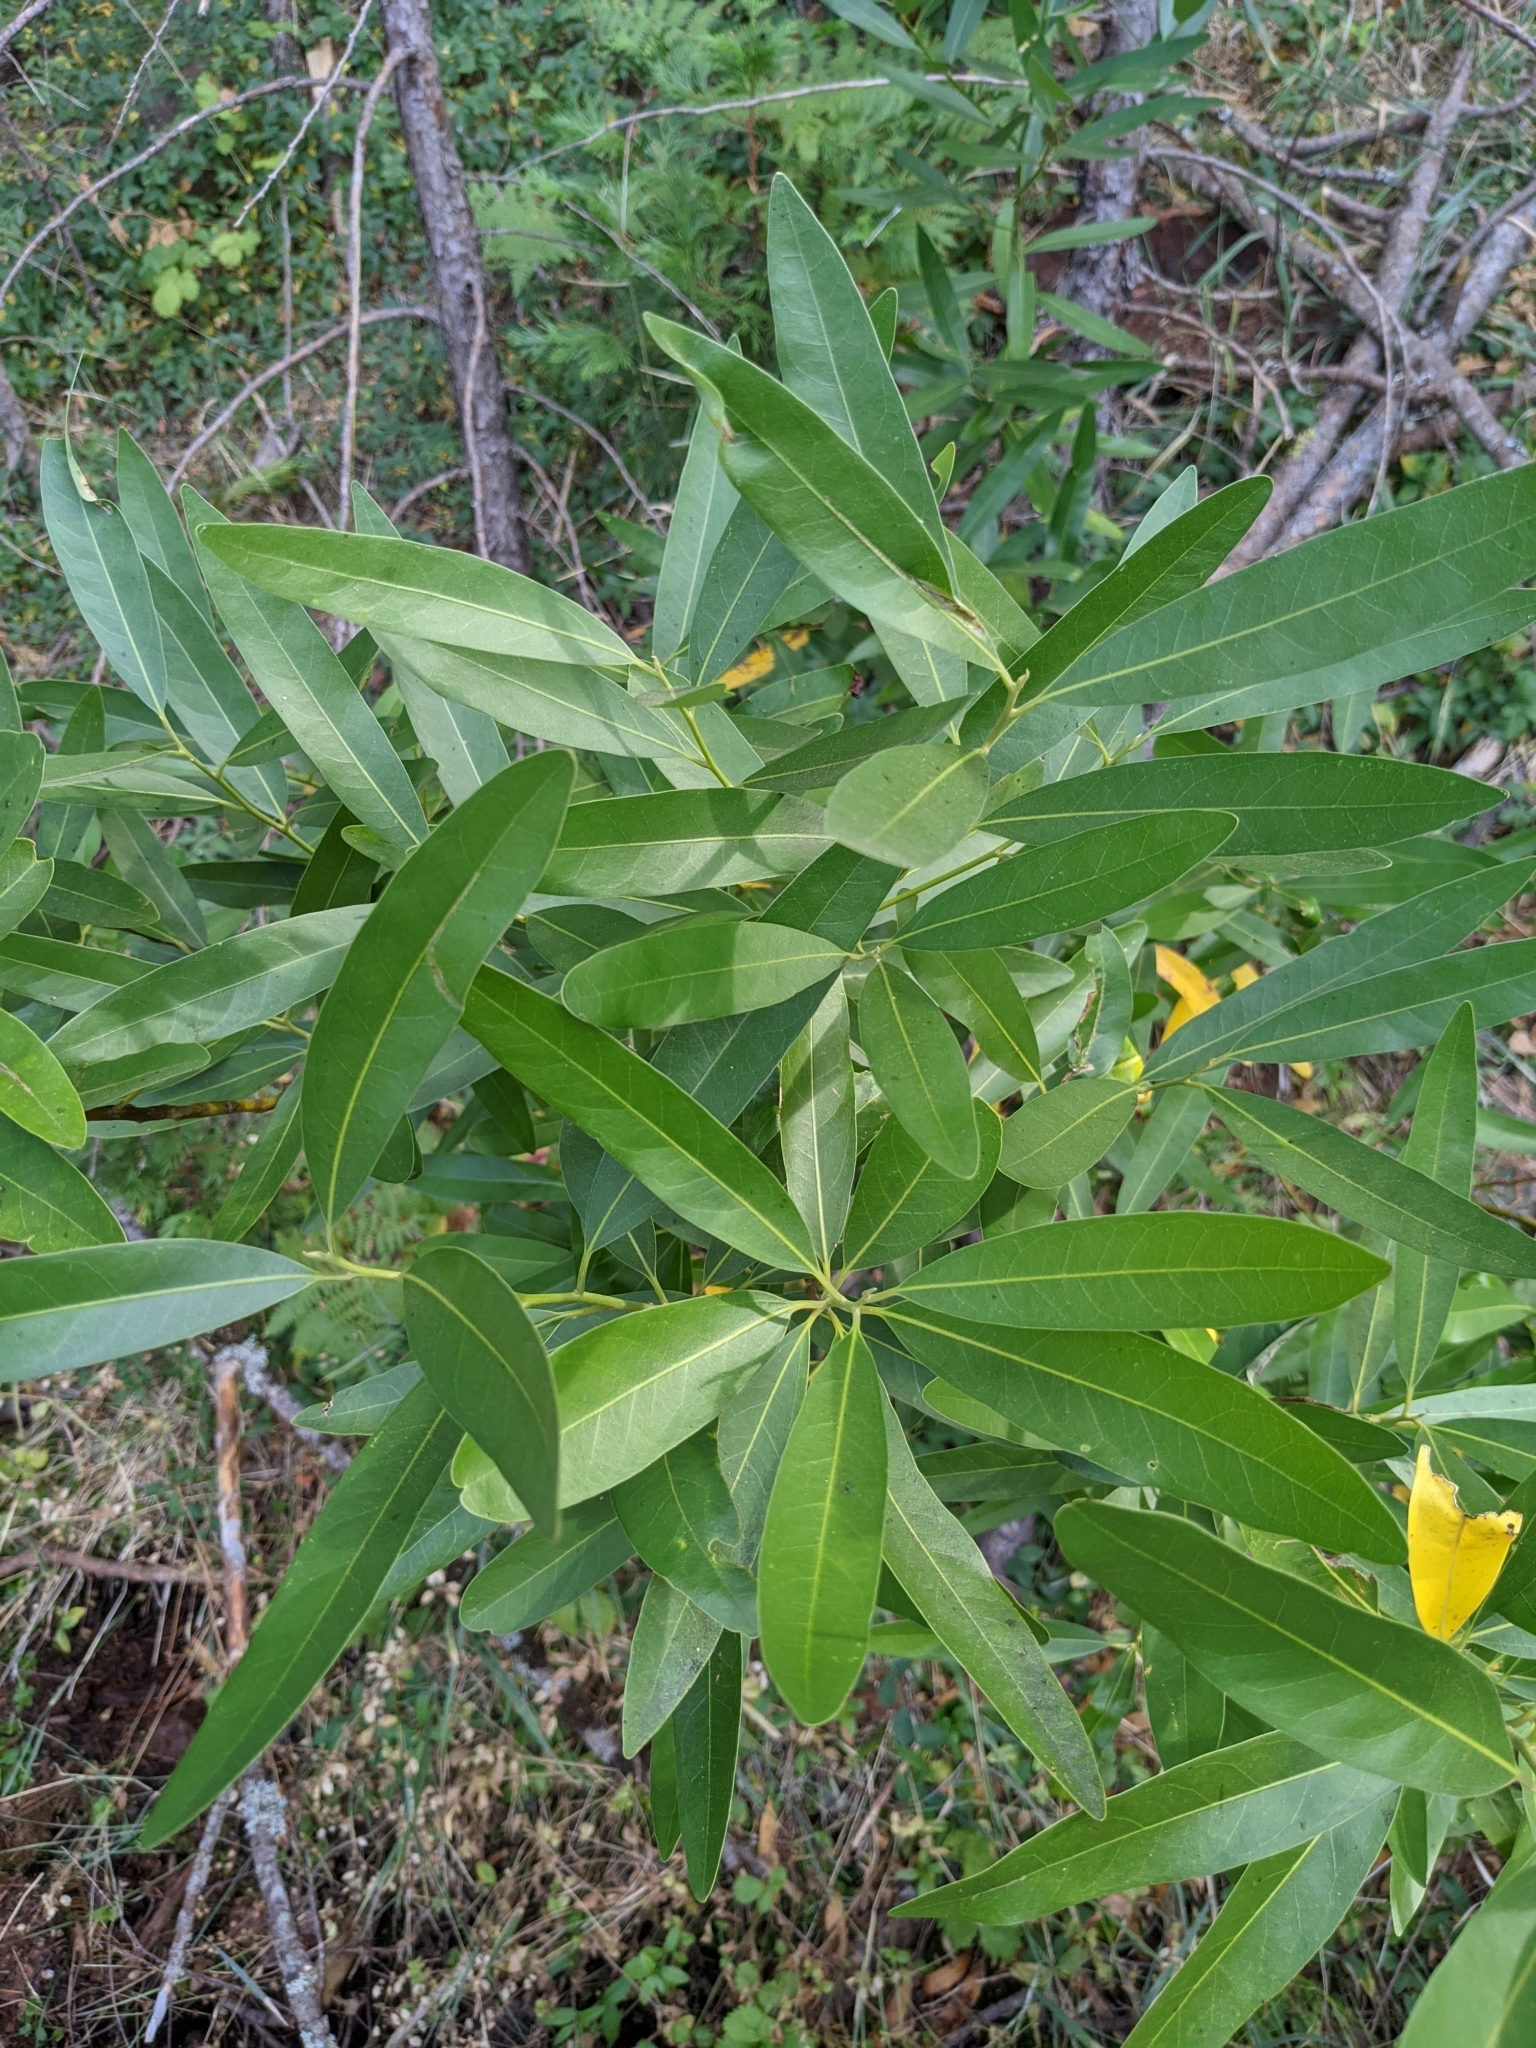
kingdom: Plantae
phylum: Tracheophyta
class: Magnoliopsida
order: Laurales
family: Lauraceae
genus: Umbellularia
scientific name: Umbellularia californica
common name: California bay
